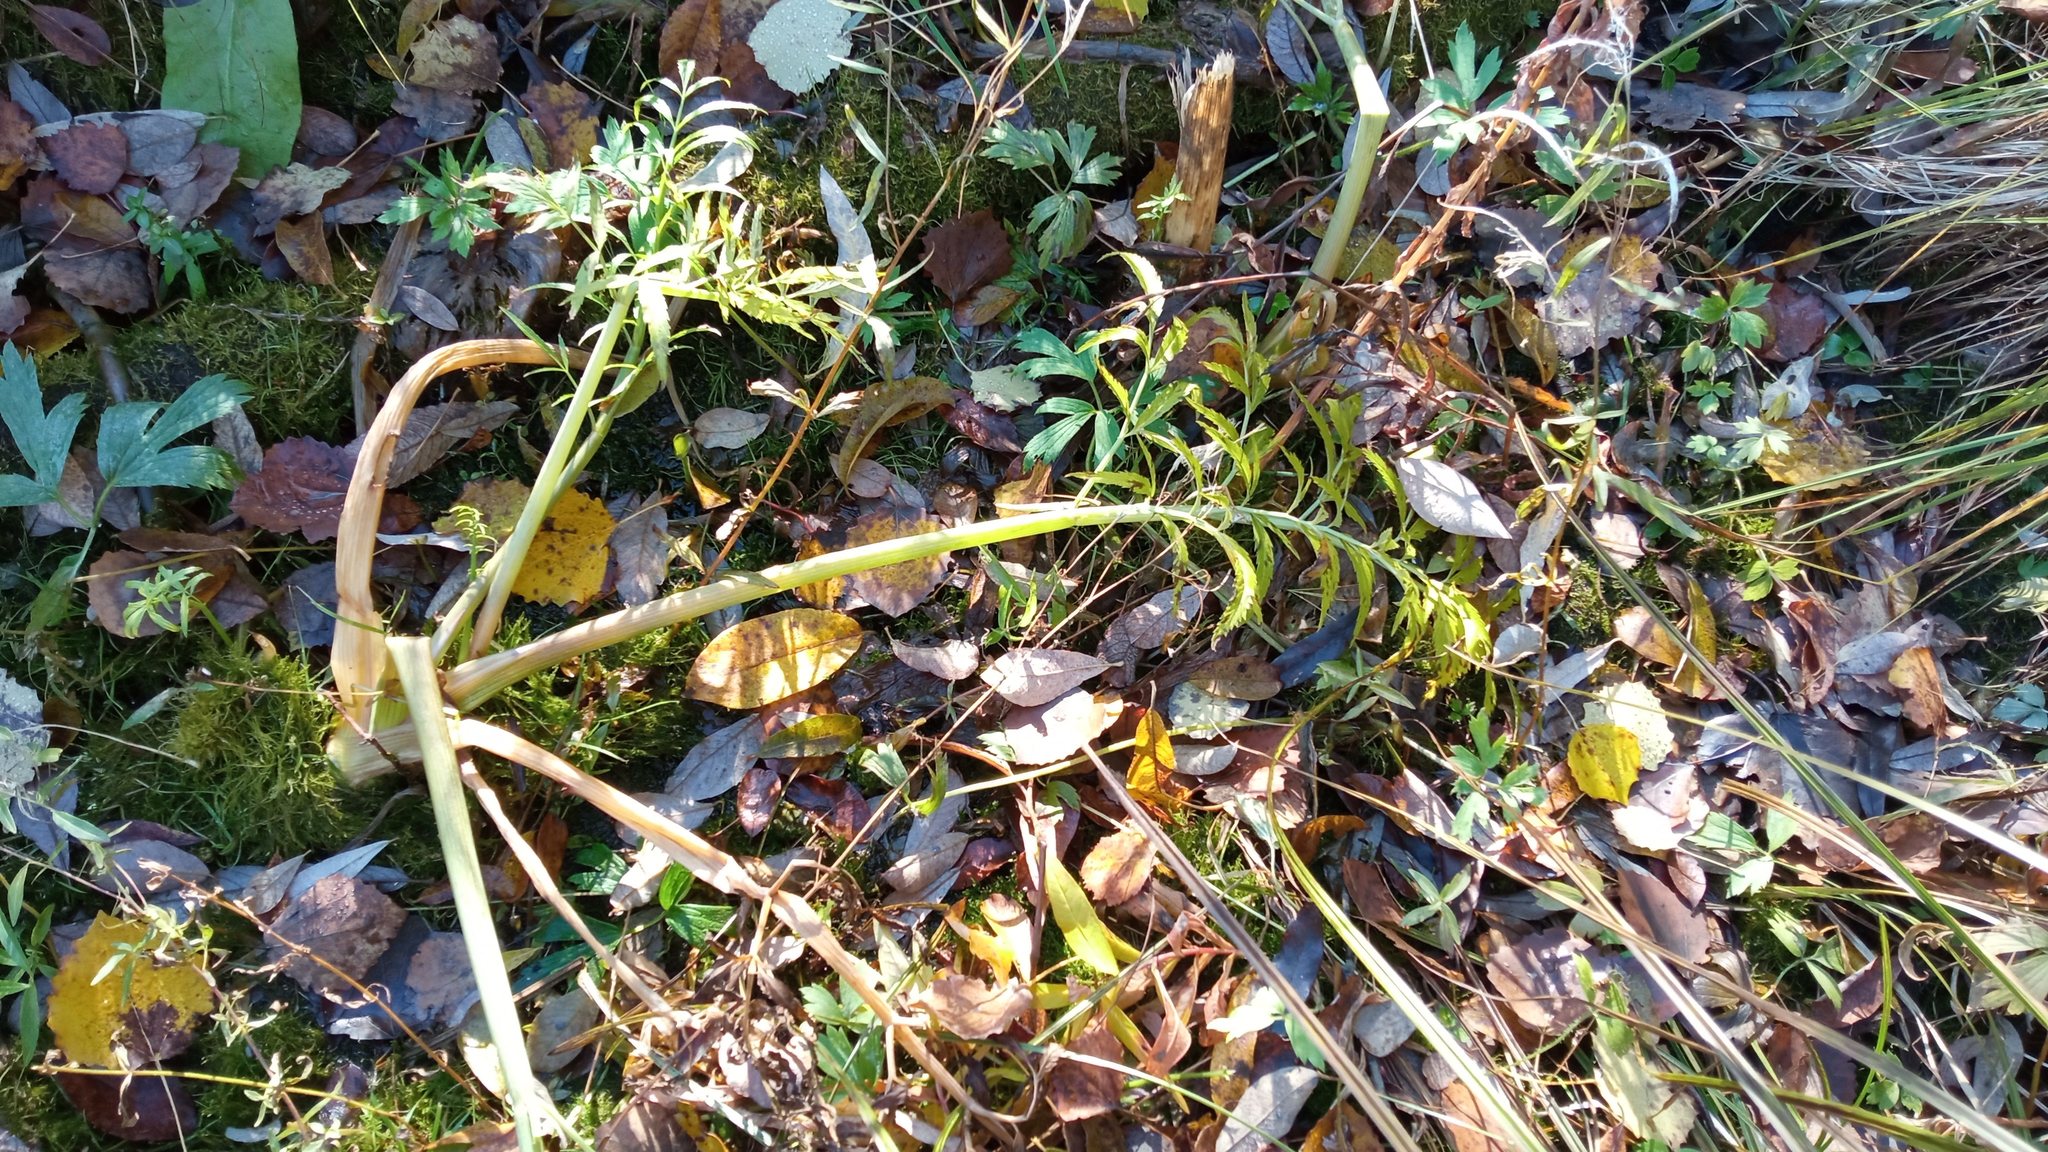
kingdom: Plantae
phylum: Tracheophyta
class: Magnoliopsida
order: Apiales
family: Apiaceae
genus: Cicuta
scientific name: Cicuta virosa
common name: Cowbane
